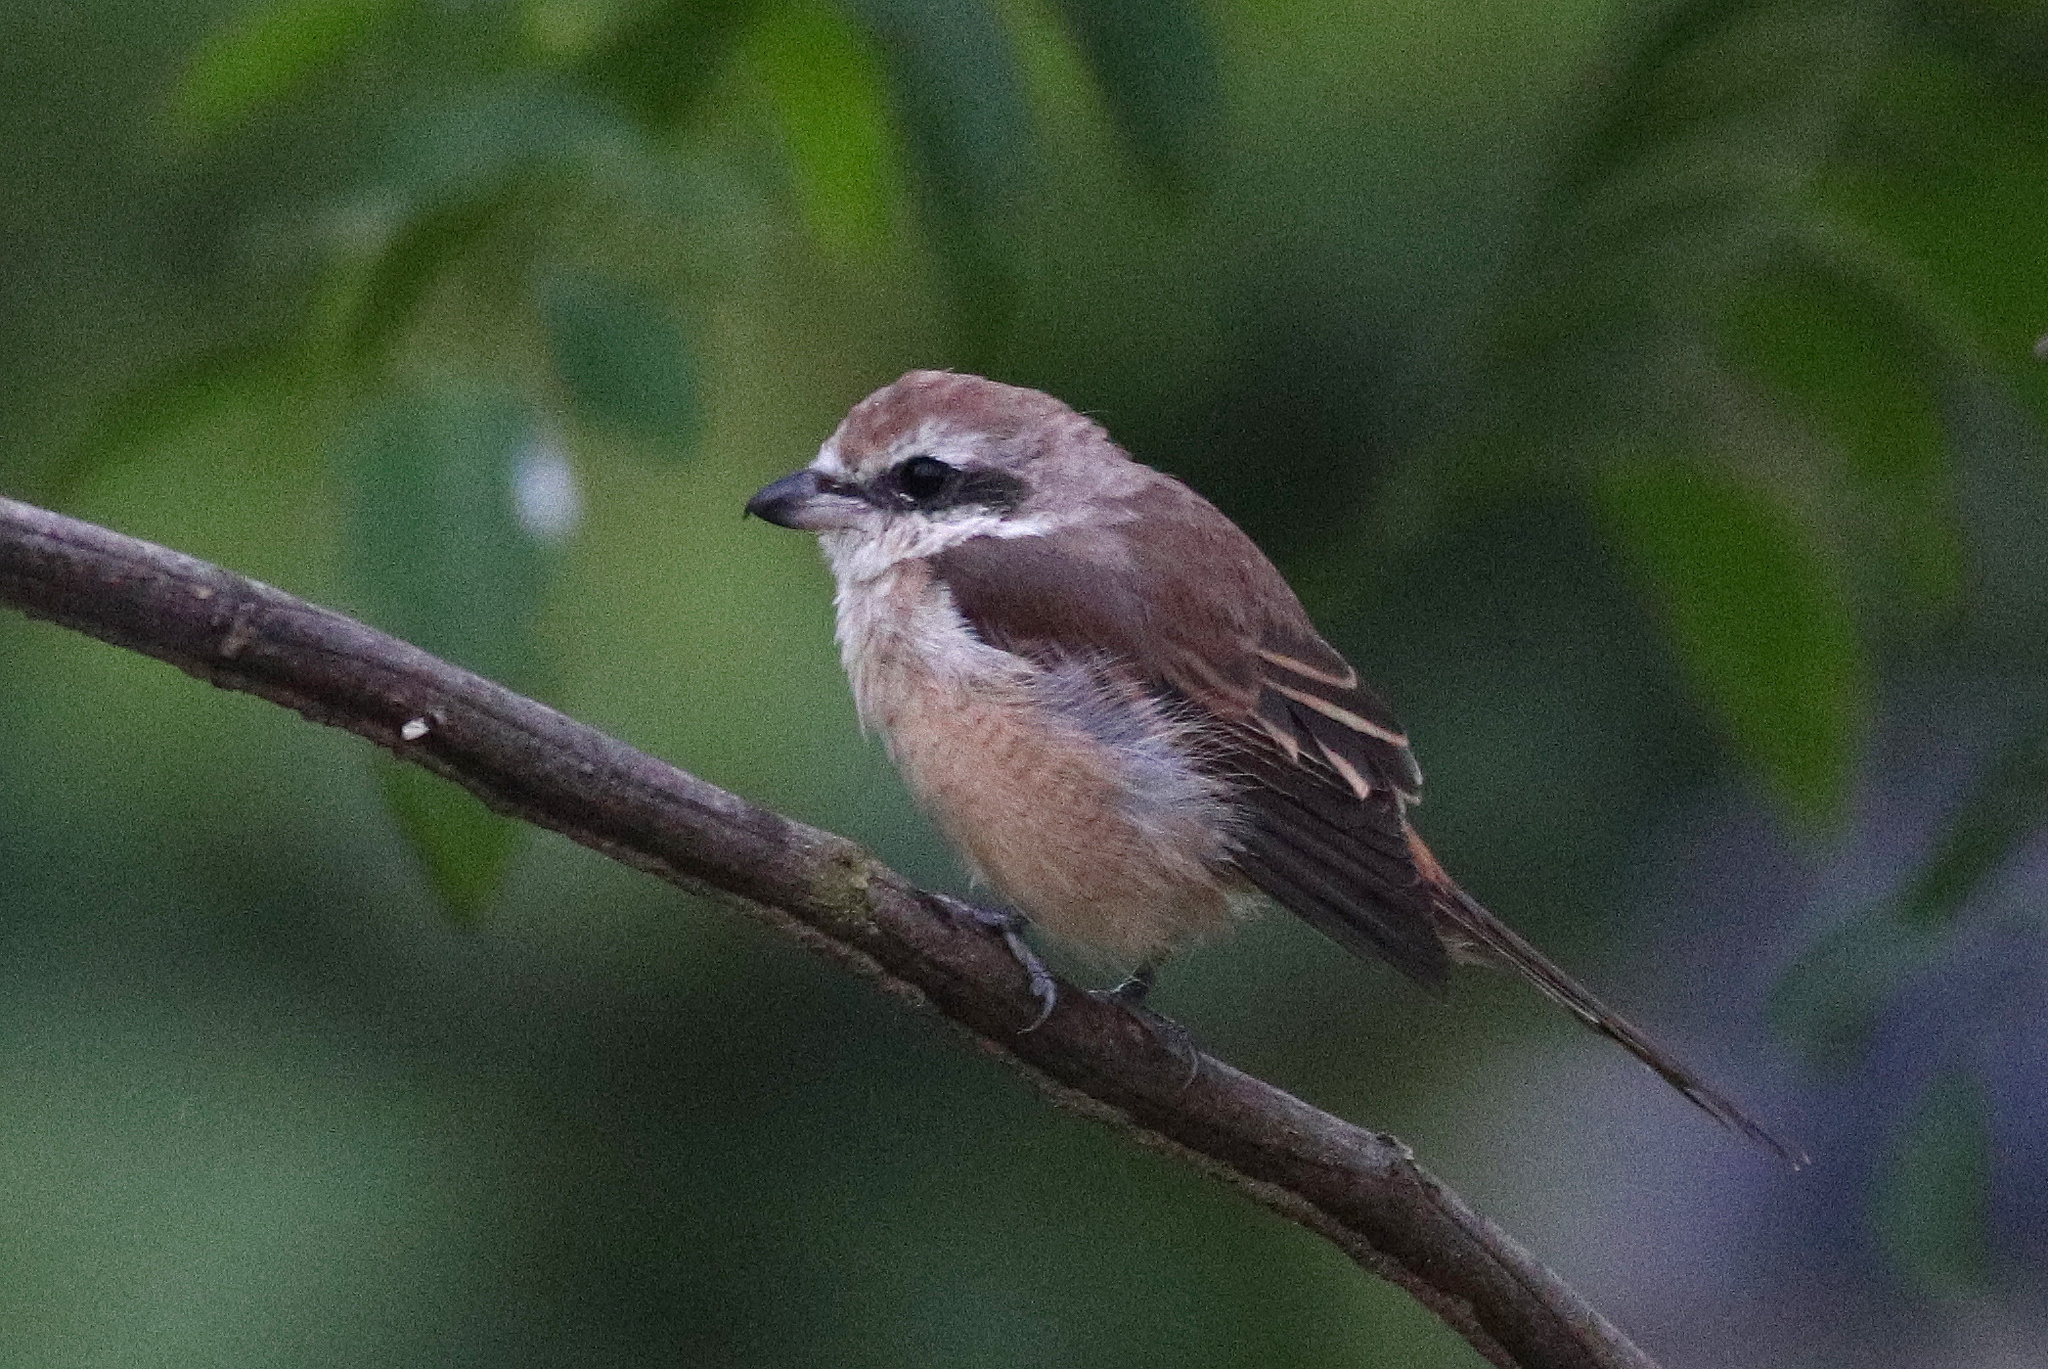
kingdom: Animalia
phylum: Chordata
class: Aves
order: Passeriformes
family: Laniidae
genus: Lanius
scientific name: Lanius cristatus
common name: Brown shrike
